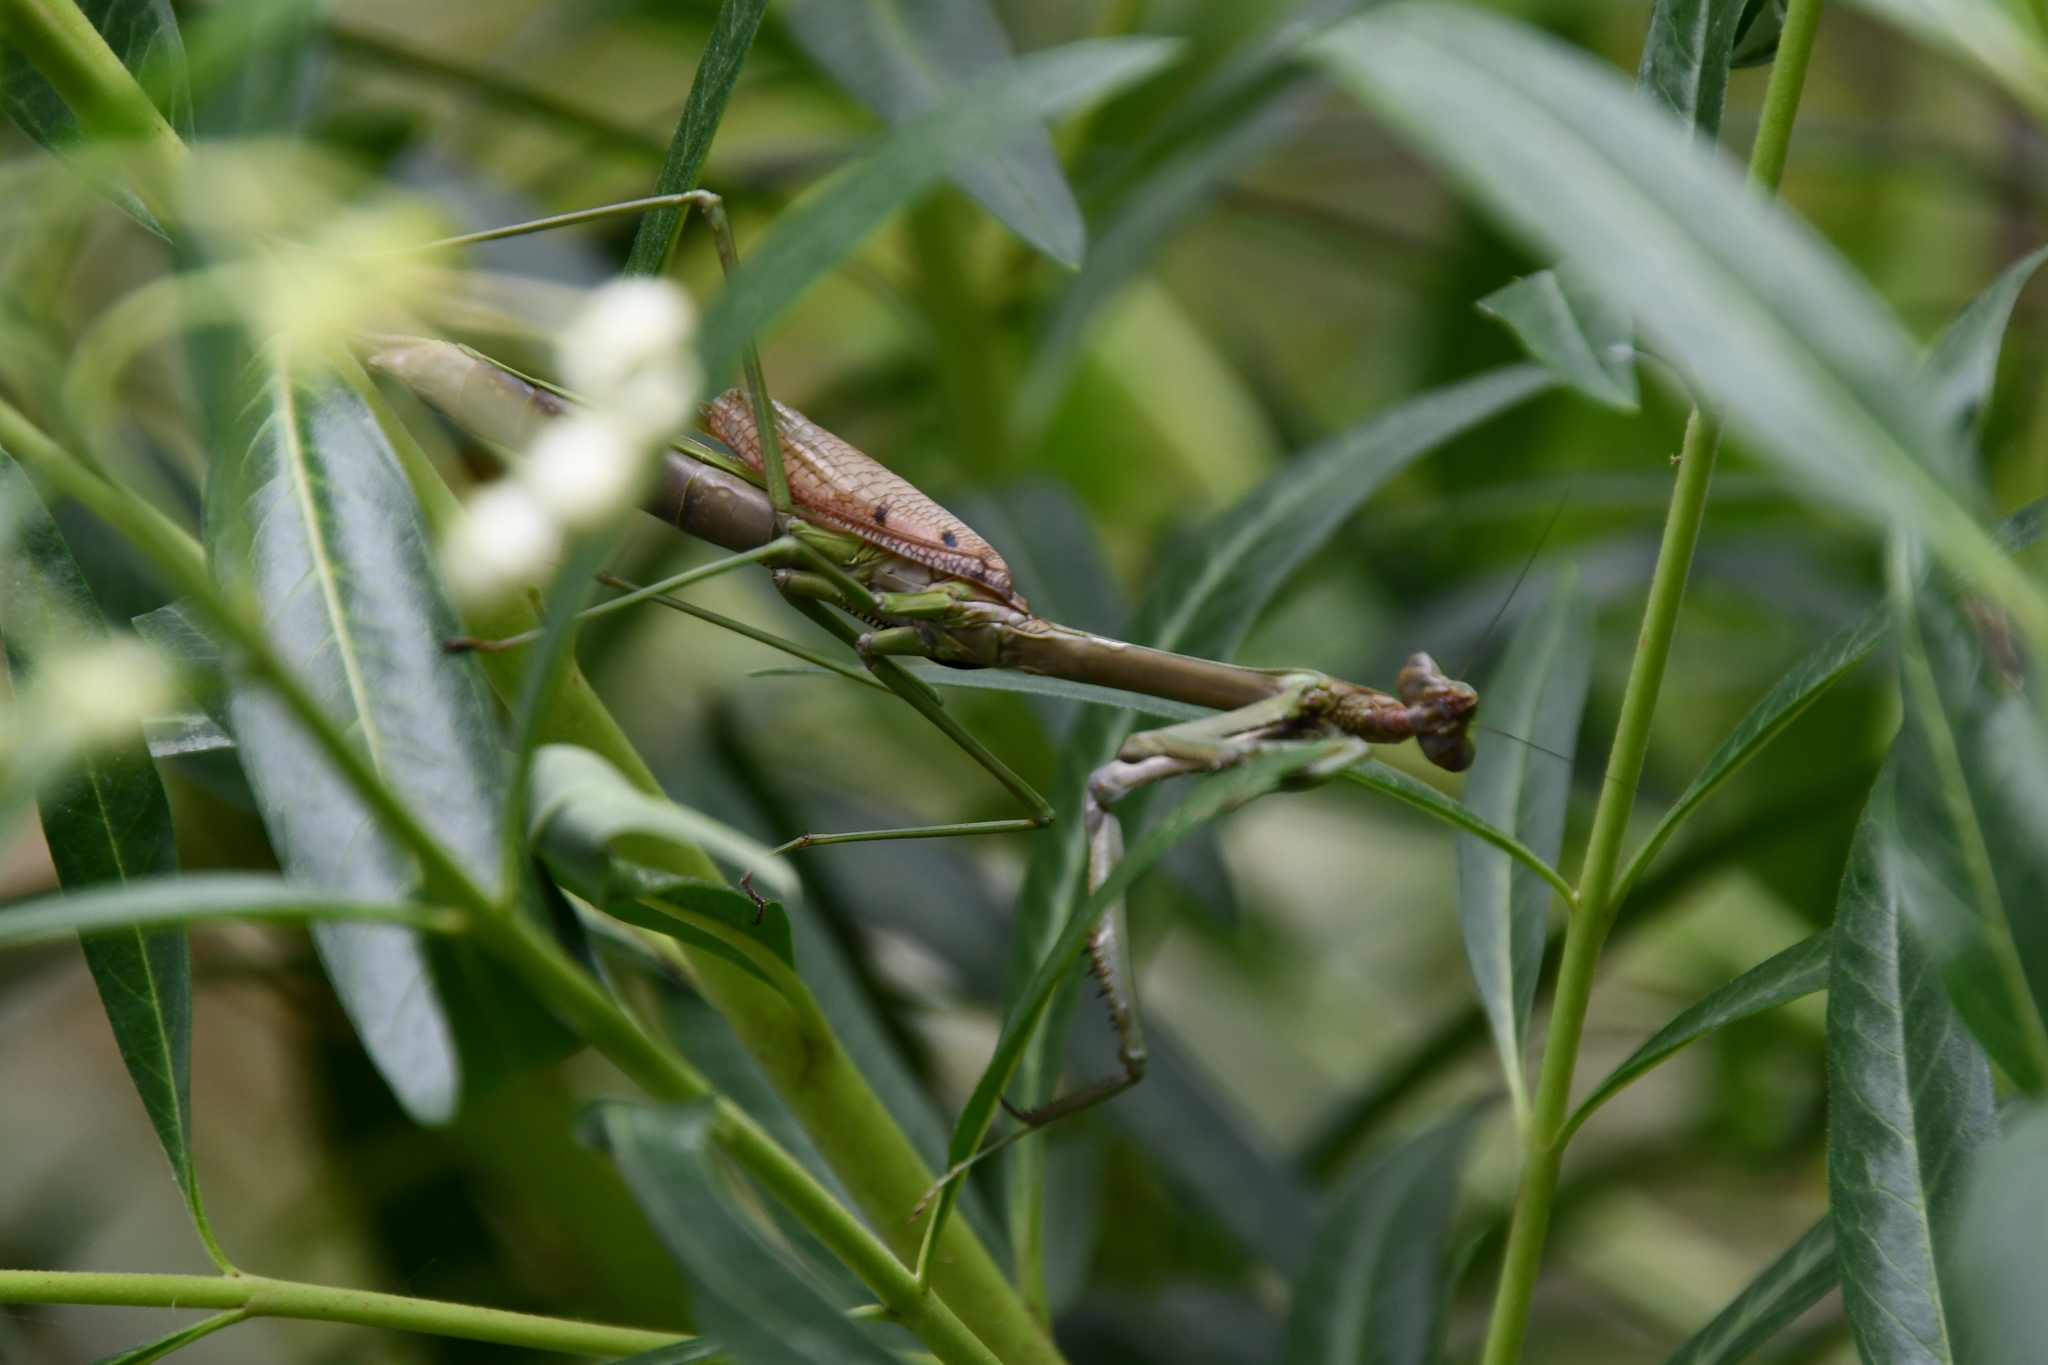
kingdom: Animalia
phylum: Arthropoda
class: Insecta
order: Mantodea
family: Mantidae
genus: Archimantis
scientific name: Archimantis latistyla
